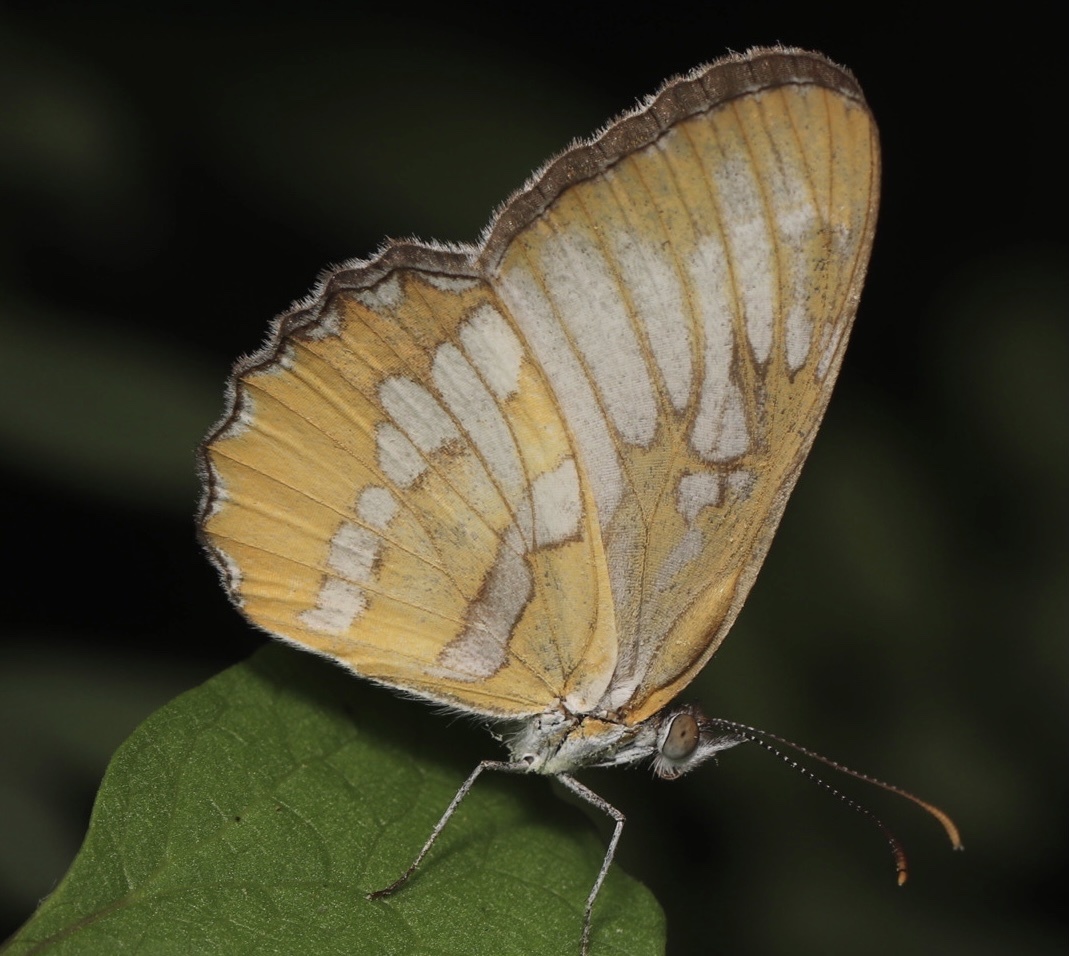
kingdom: Animalia
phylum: Arthropoda
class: Insecta
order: Lepidoptera
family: Nymphalidae
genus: Mestra
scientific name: Mestra amymone
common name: Common mestra
